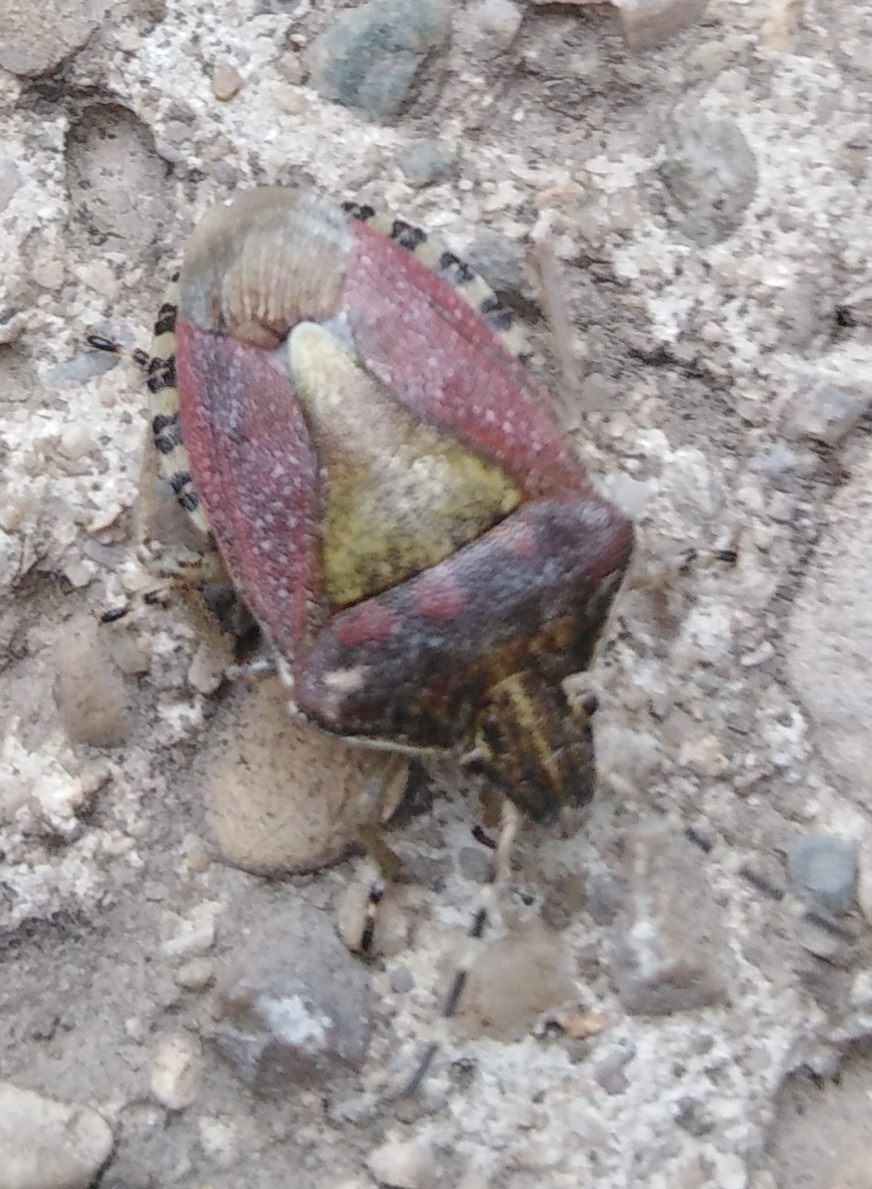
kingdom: Animalia
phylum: Arthropoda
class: Insecta
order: Hemiptera
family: Pentatomidae
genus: Dolycoris
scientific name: Dolycoris baccarum
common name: Sloe bug
